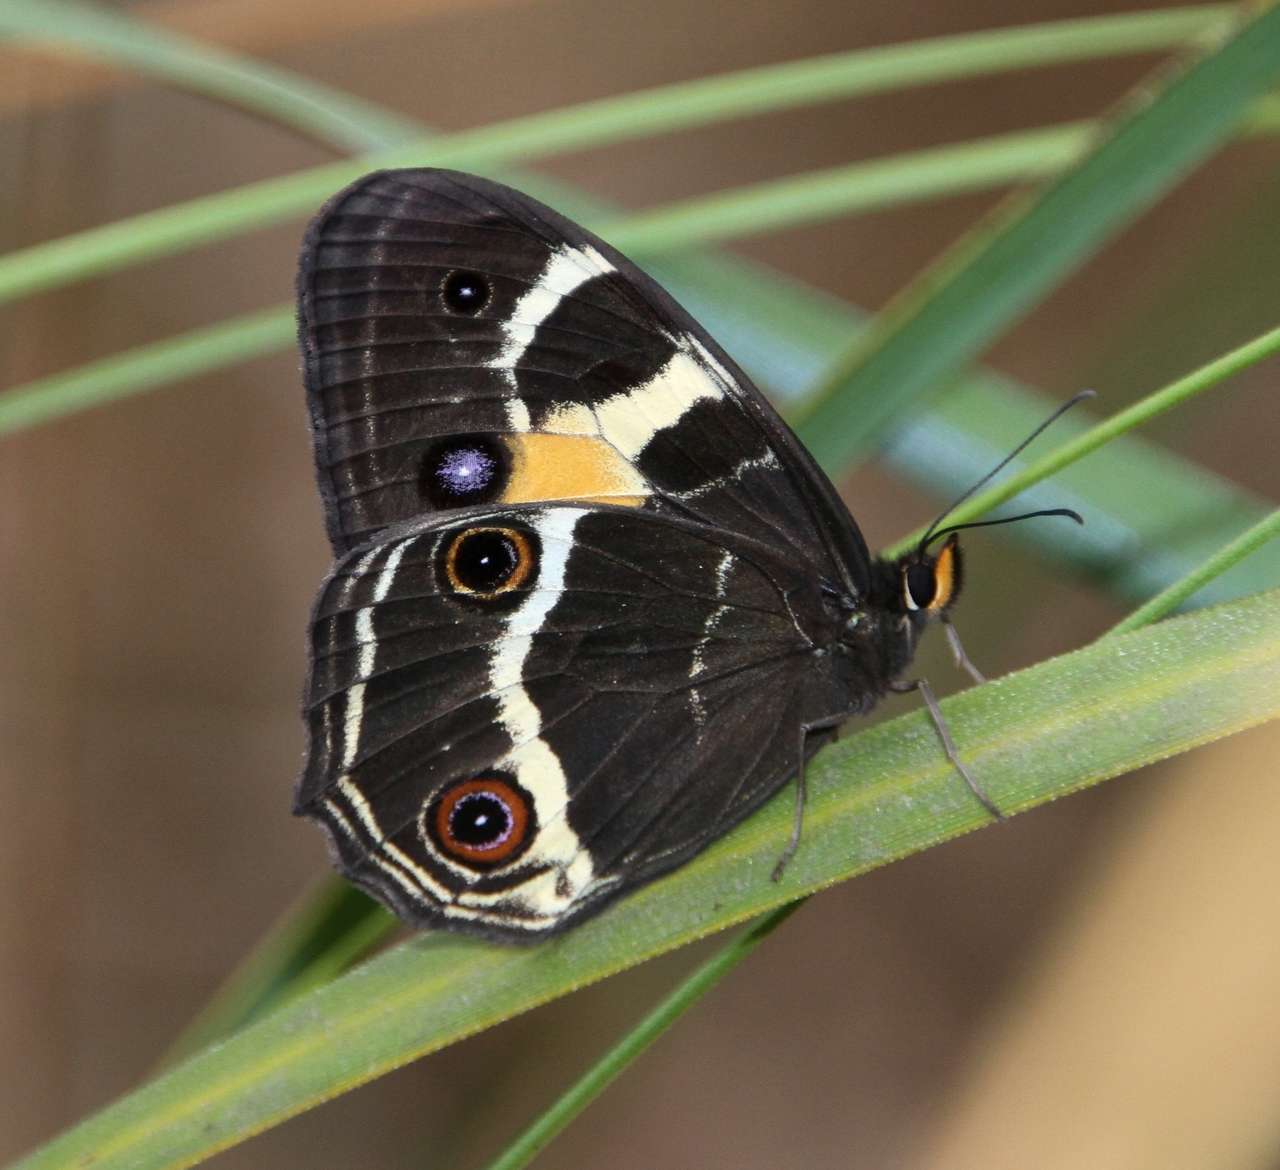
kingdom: Animalia
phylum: Arthropoda
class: Insecta
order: Lepidoptera
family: Nymphalidae
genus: Tisiphone
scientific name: Tisiphone abeona
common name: Swordgrass brown
